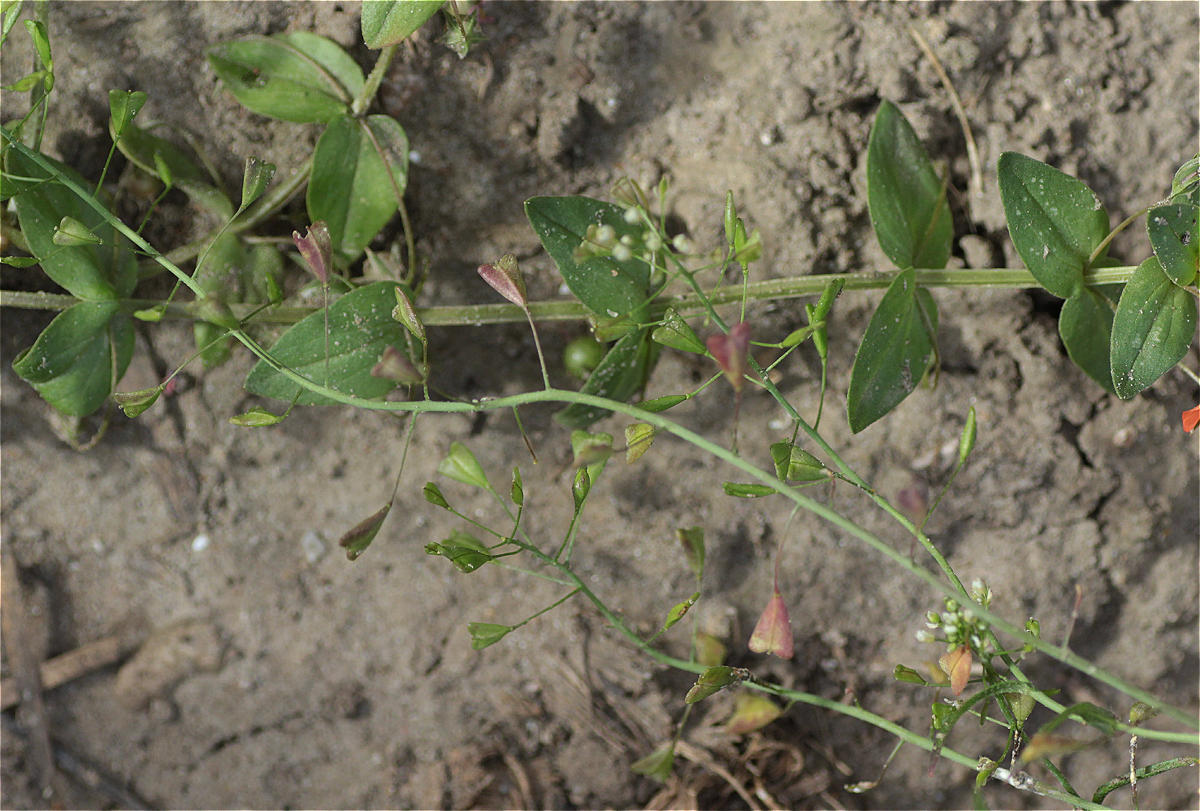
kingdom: Plantae
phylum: Tracheophyta
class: Magnoliopsida
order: Brassicales
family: Brassicaceae
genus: Capsella
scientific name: Capsella bursa-pastoris
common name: Shepherd's purse
